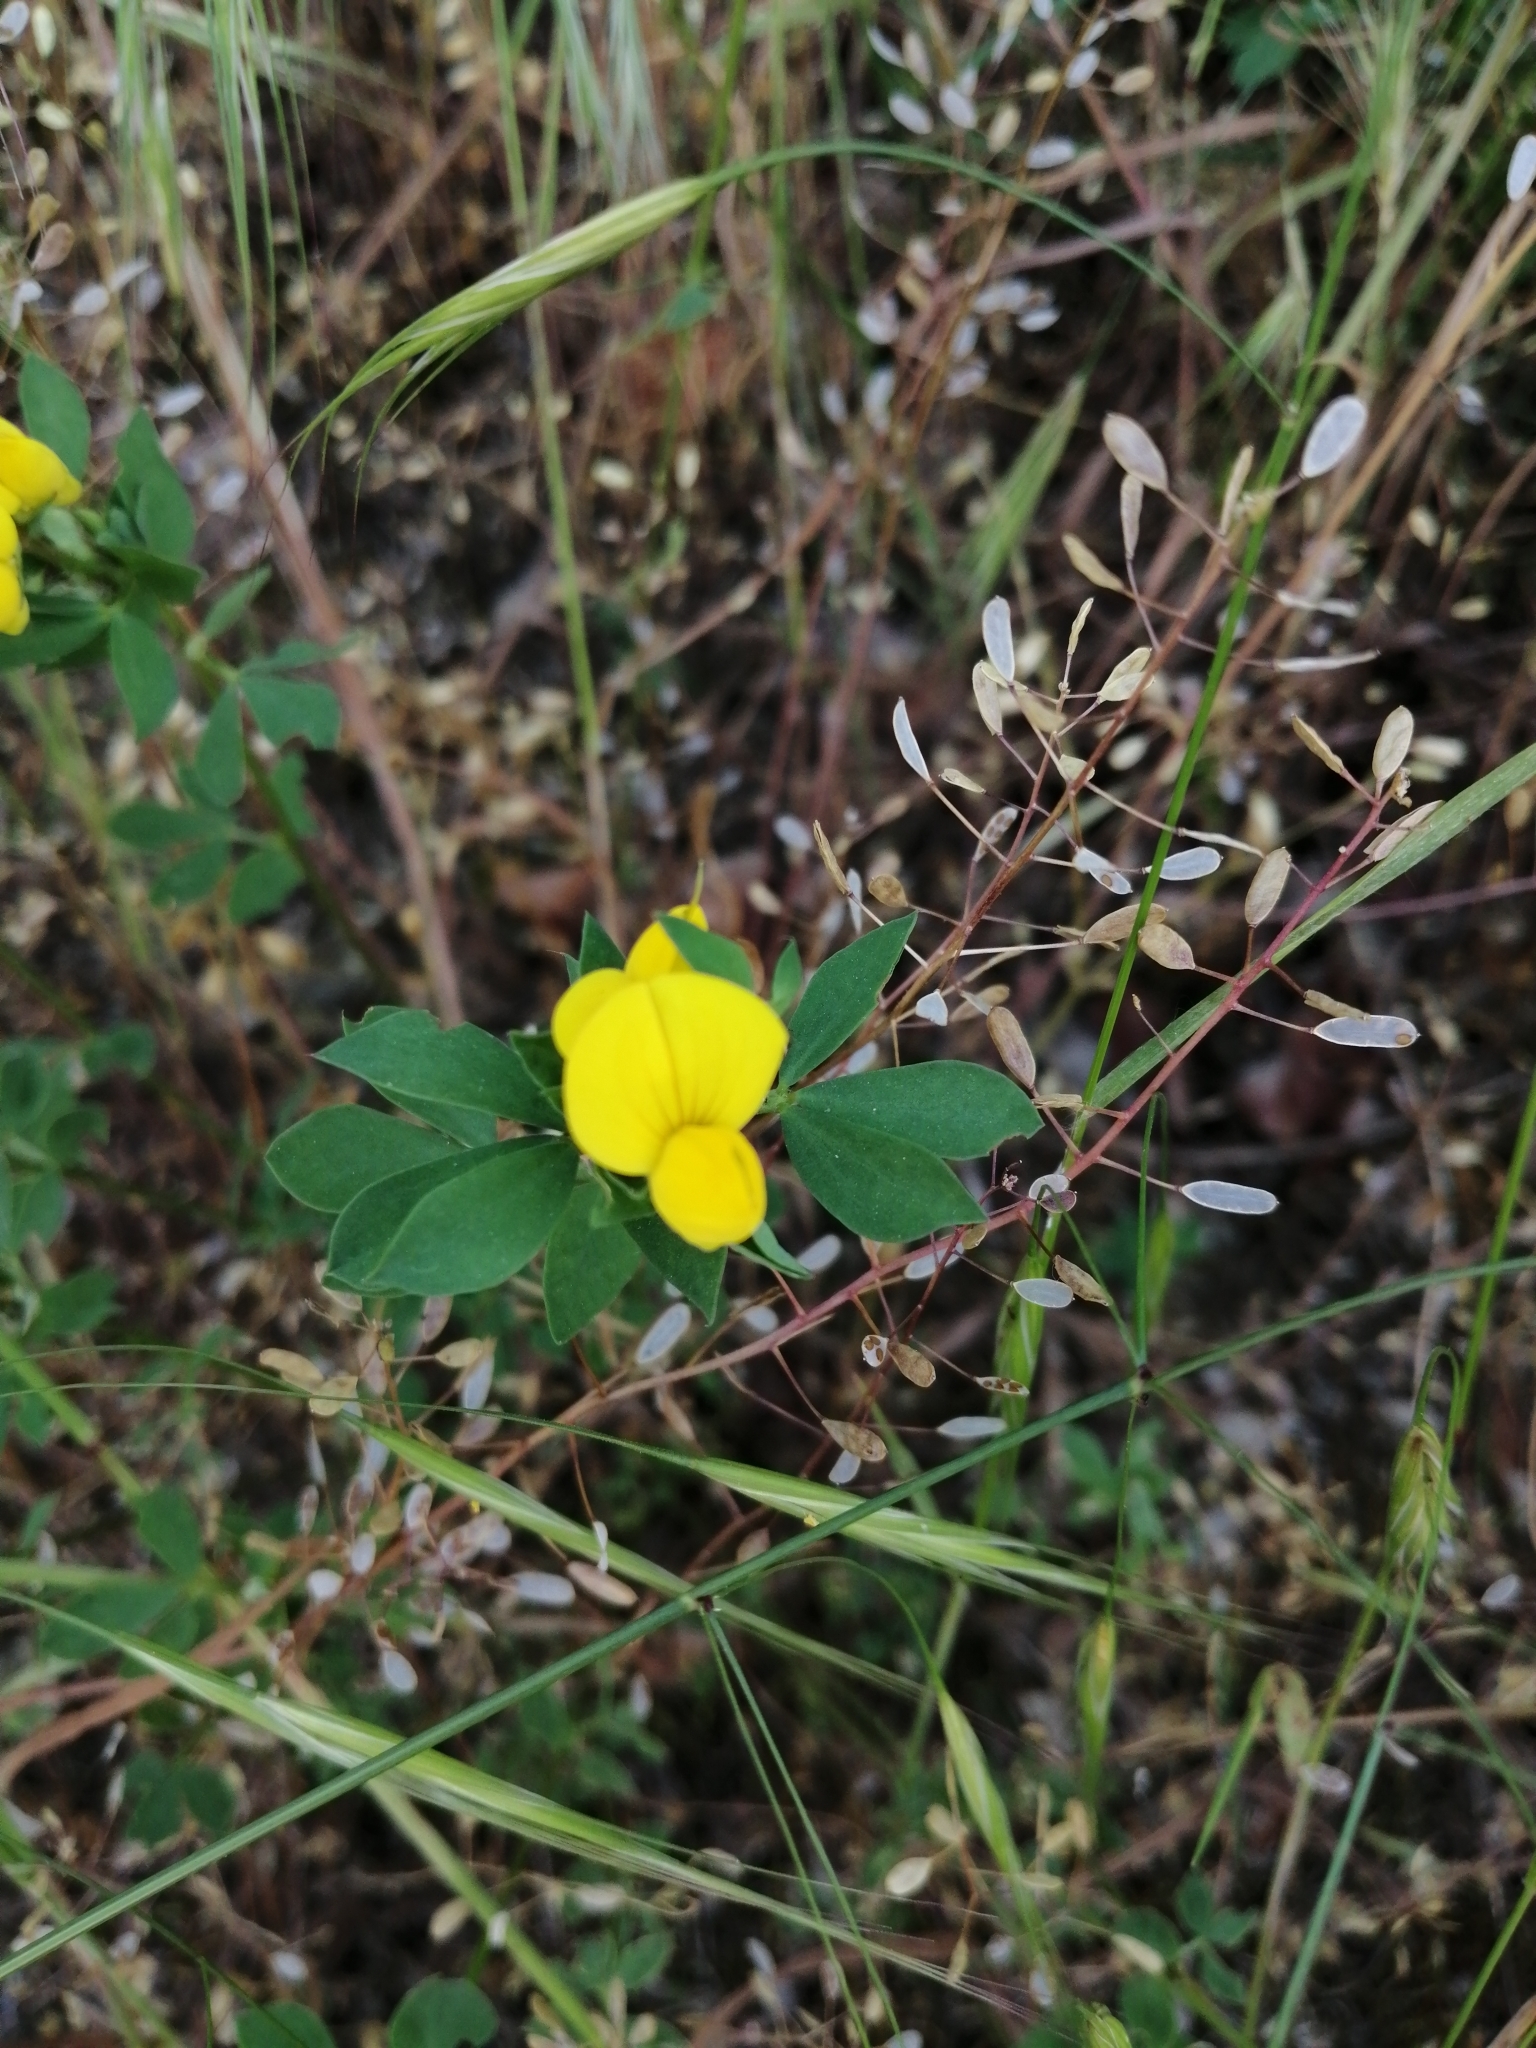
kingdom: Plantae
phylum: Tracheophyta
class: Magnoliopsida
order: Fabales
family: Fabaceae
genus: Lotus
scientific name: Lotus corniculatus
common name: Common bird's-foot-trefoil
